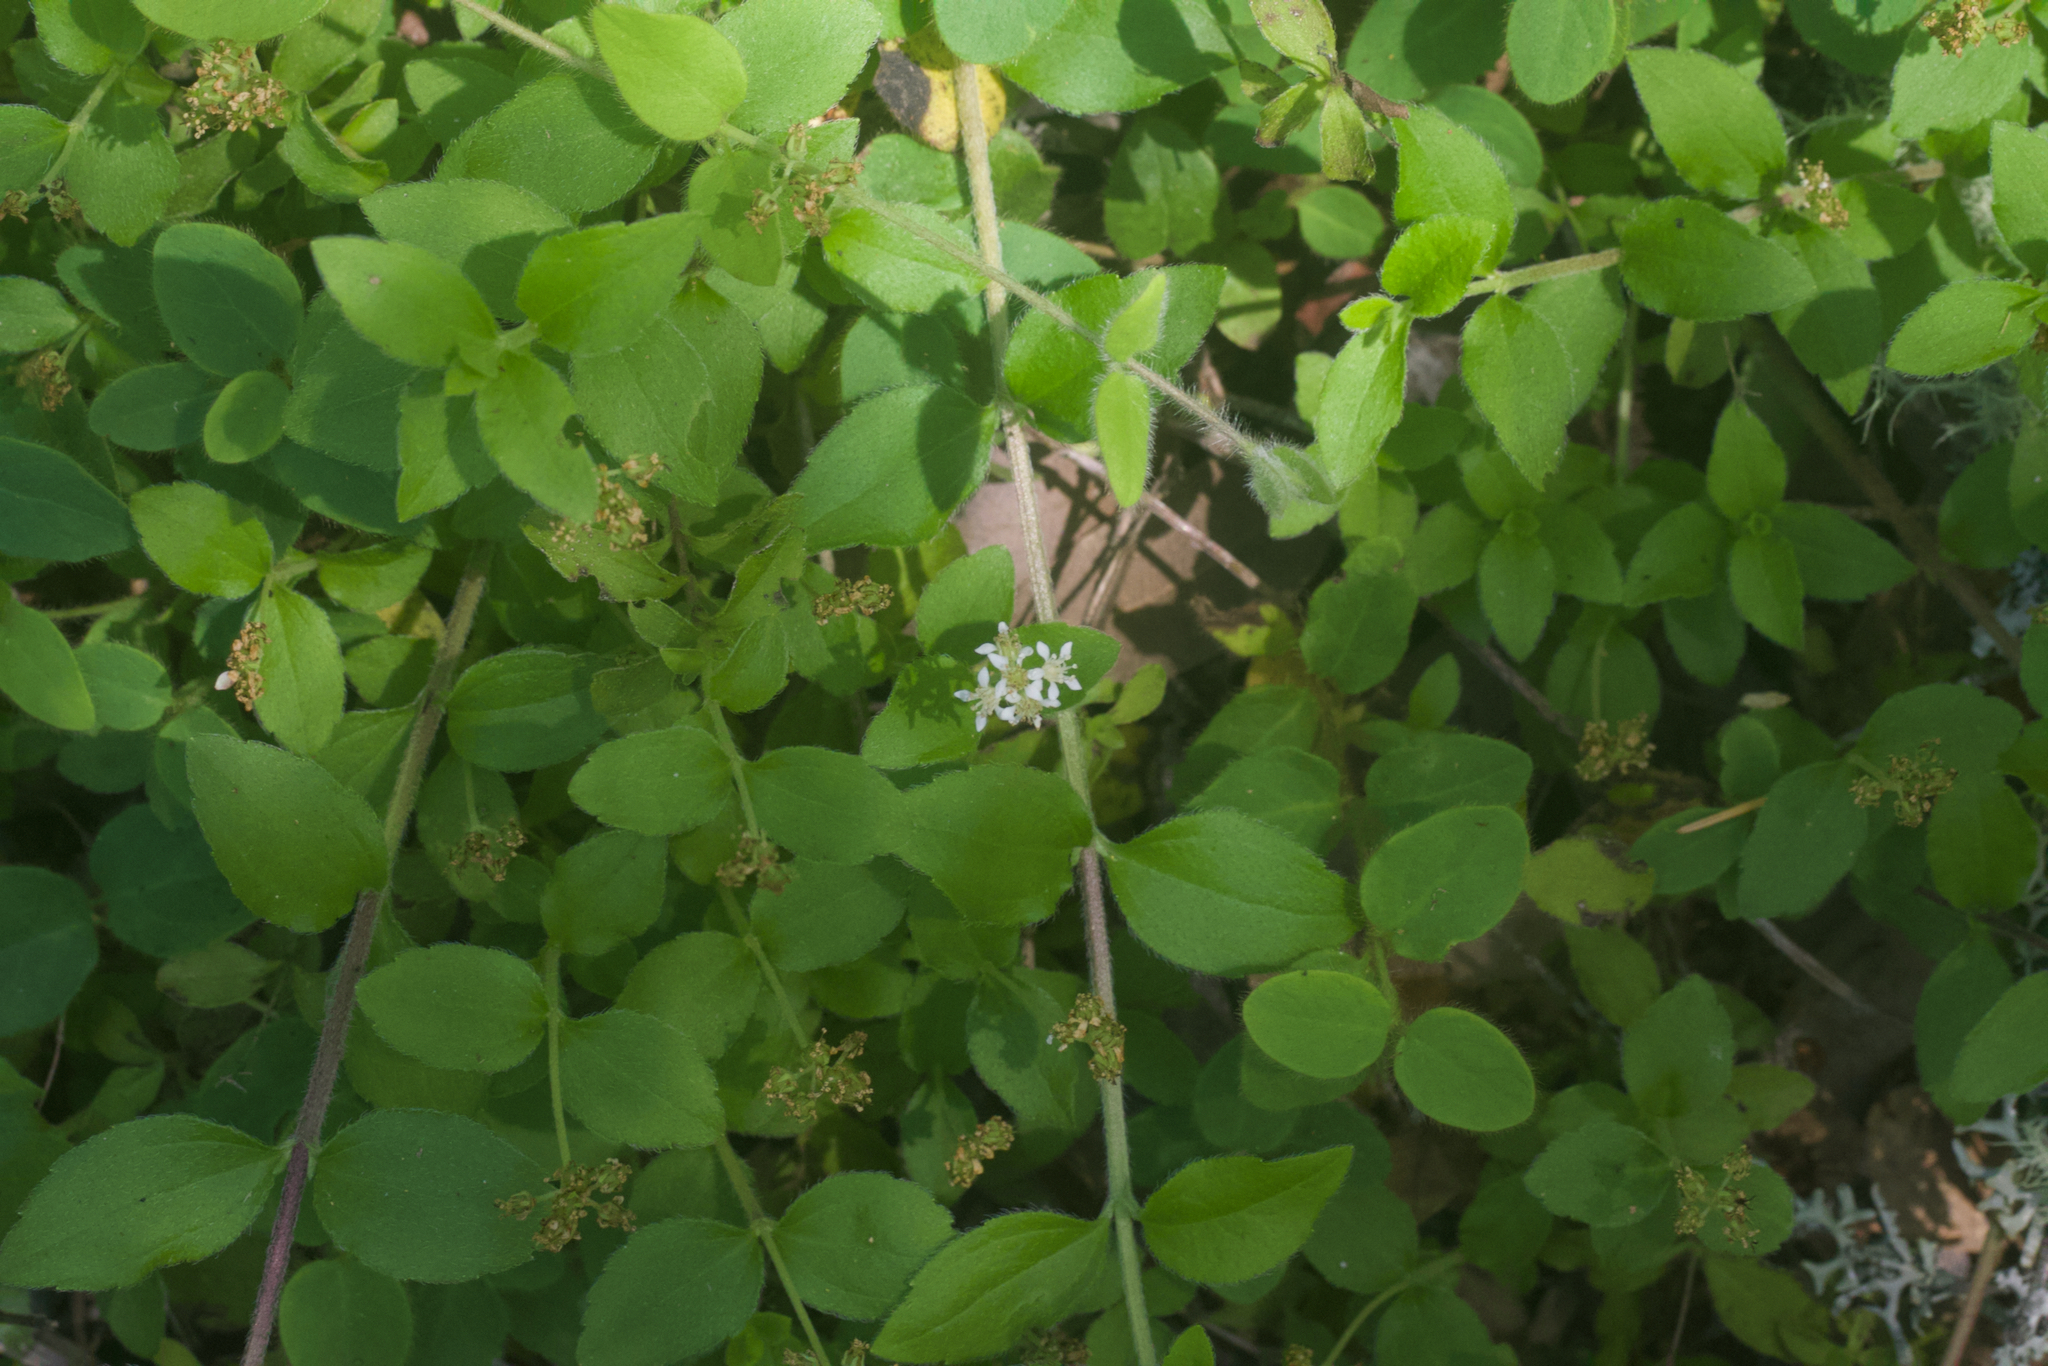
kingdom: Plantae
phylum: Tracheophyta
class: Magnoliopsida
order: Cornales
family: Hydrangeaceae
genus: Whipplea
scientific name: Whipplea modesta
